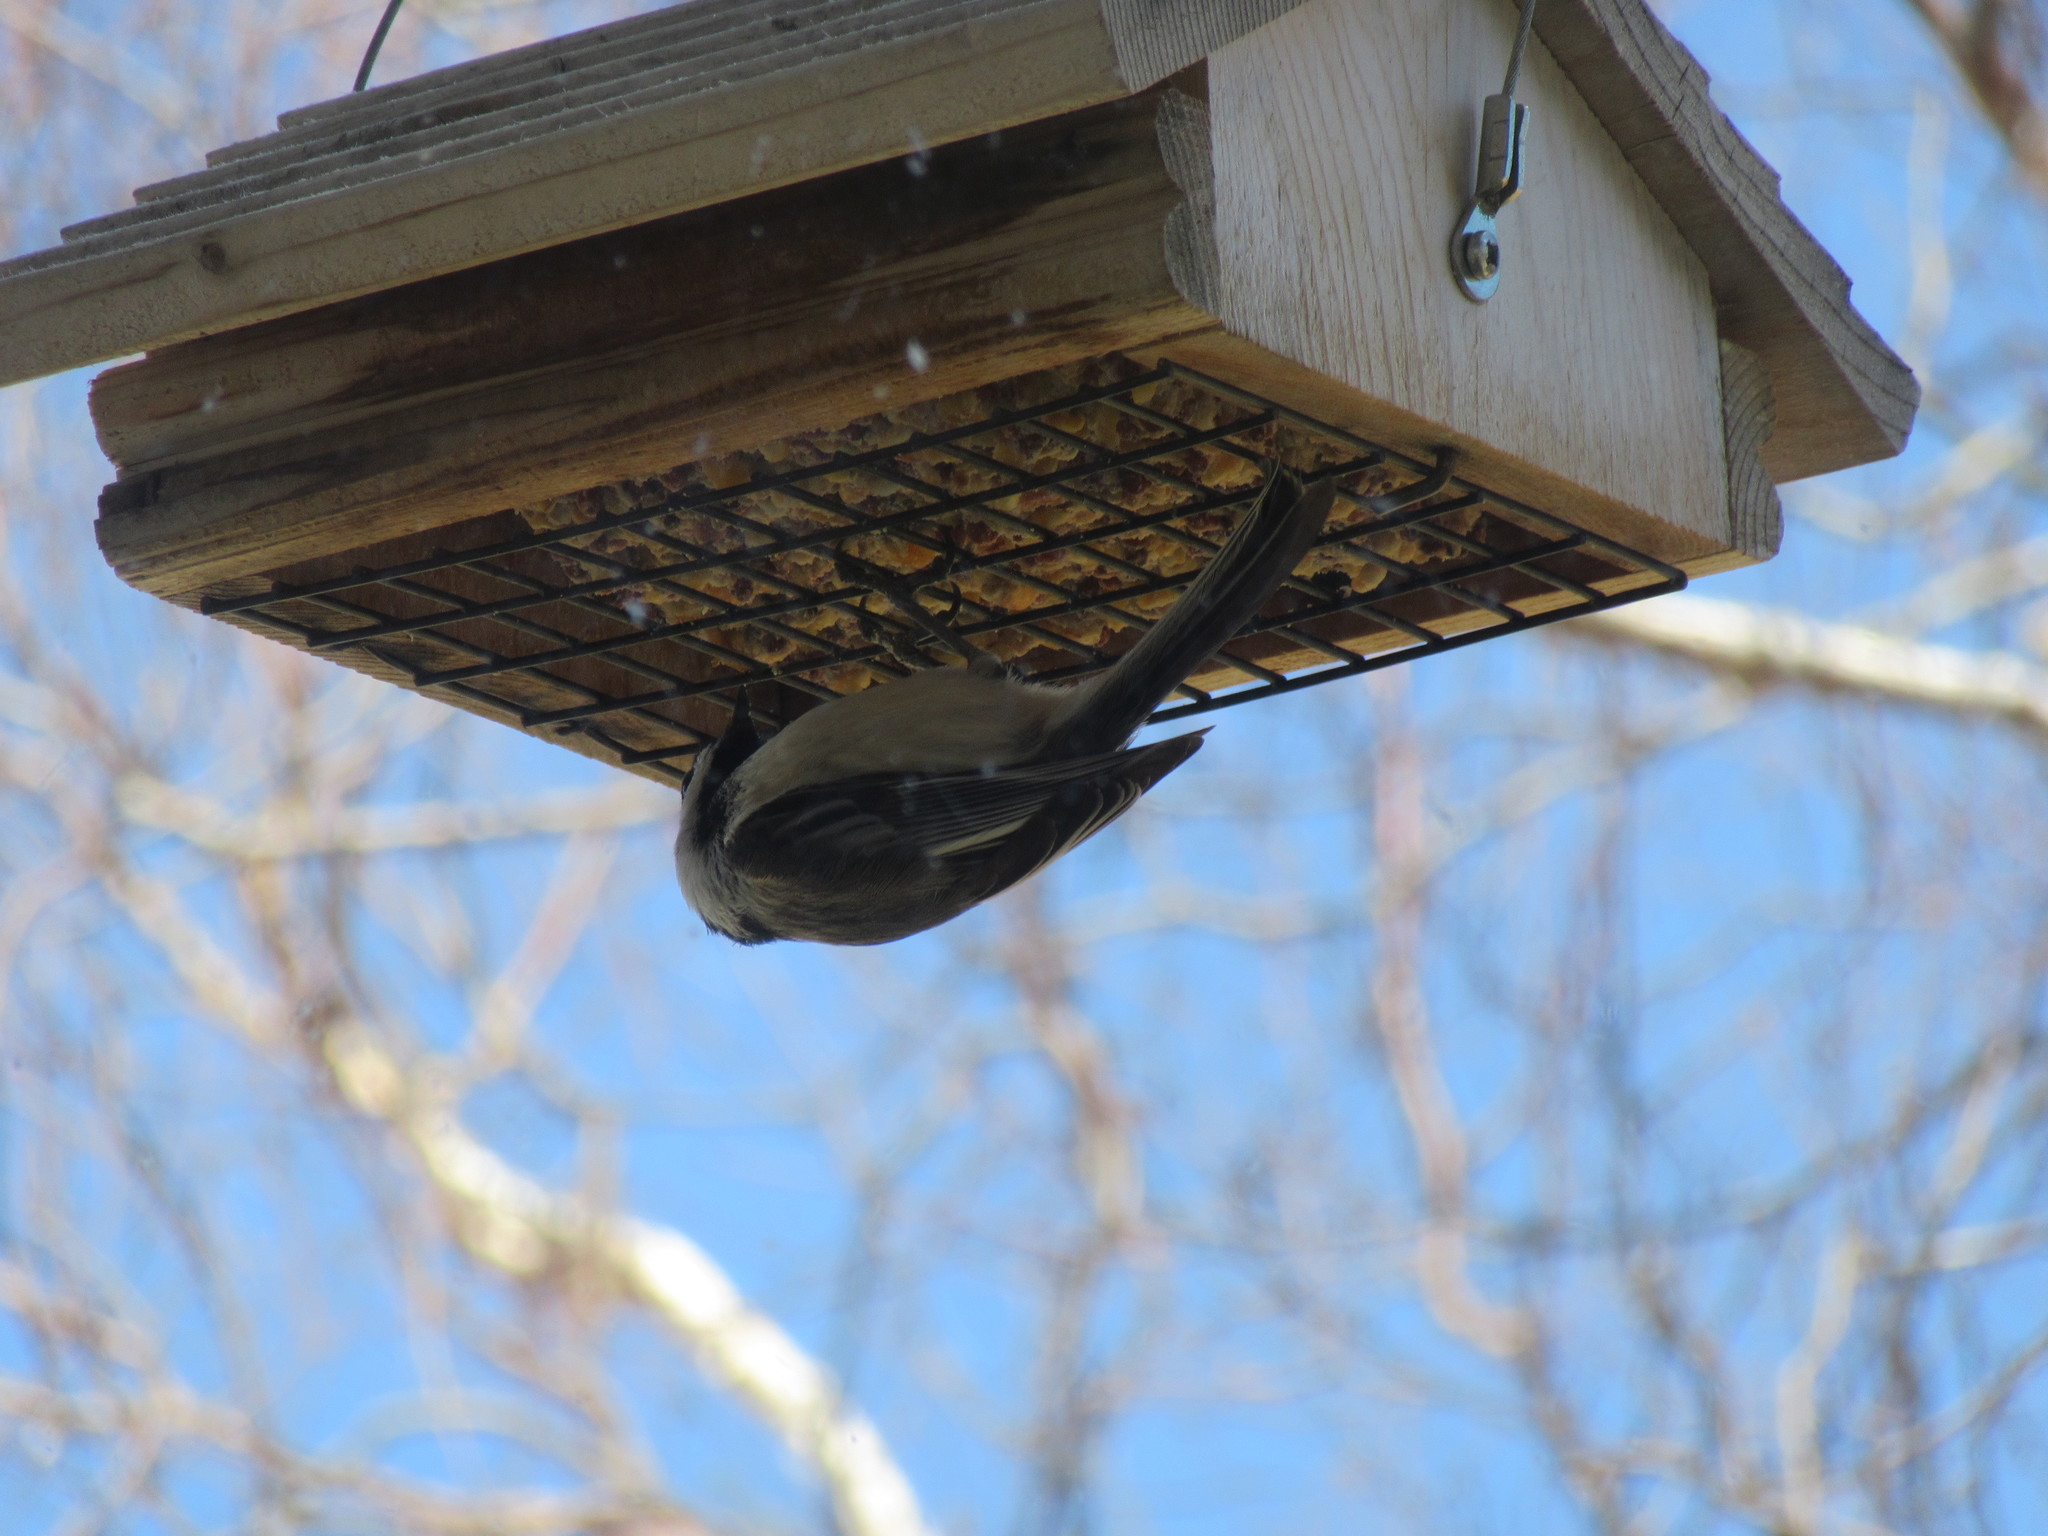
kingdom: Animalia
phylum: Chordata
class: Aves
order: Passeriformes
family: Paridae
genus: Poecile
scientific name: Poecile atricapillus
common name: Black-capped chickadee
